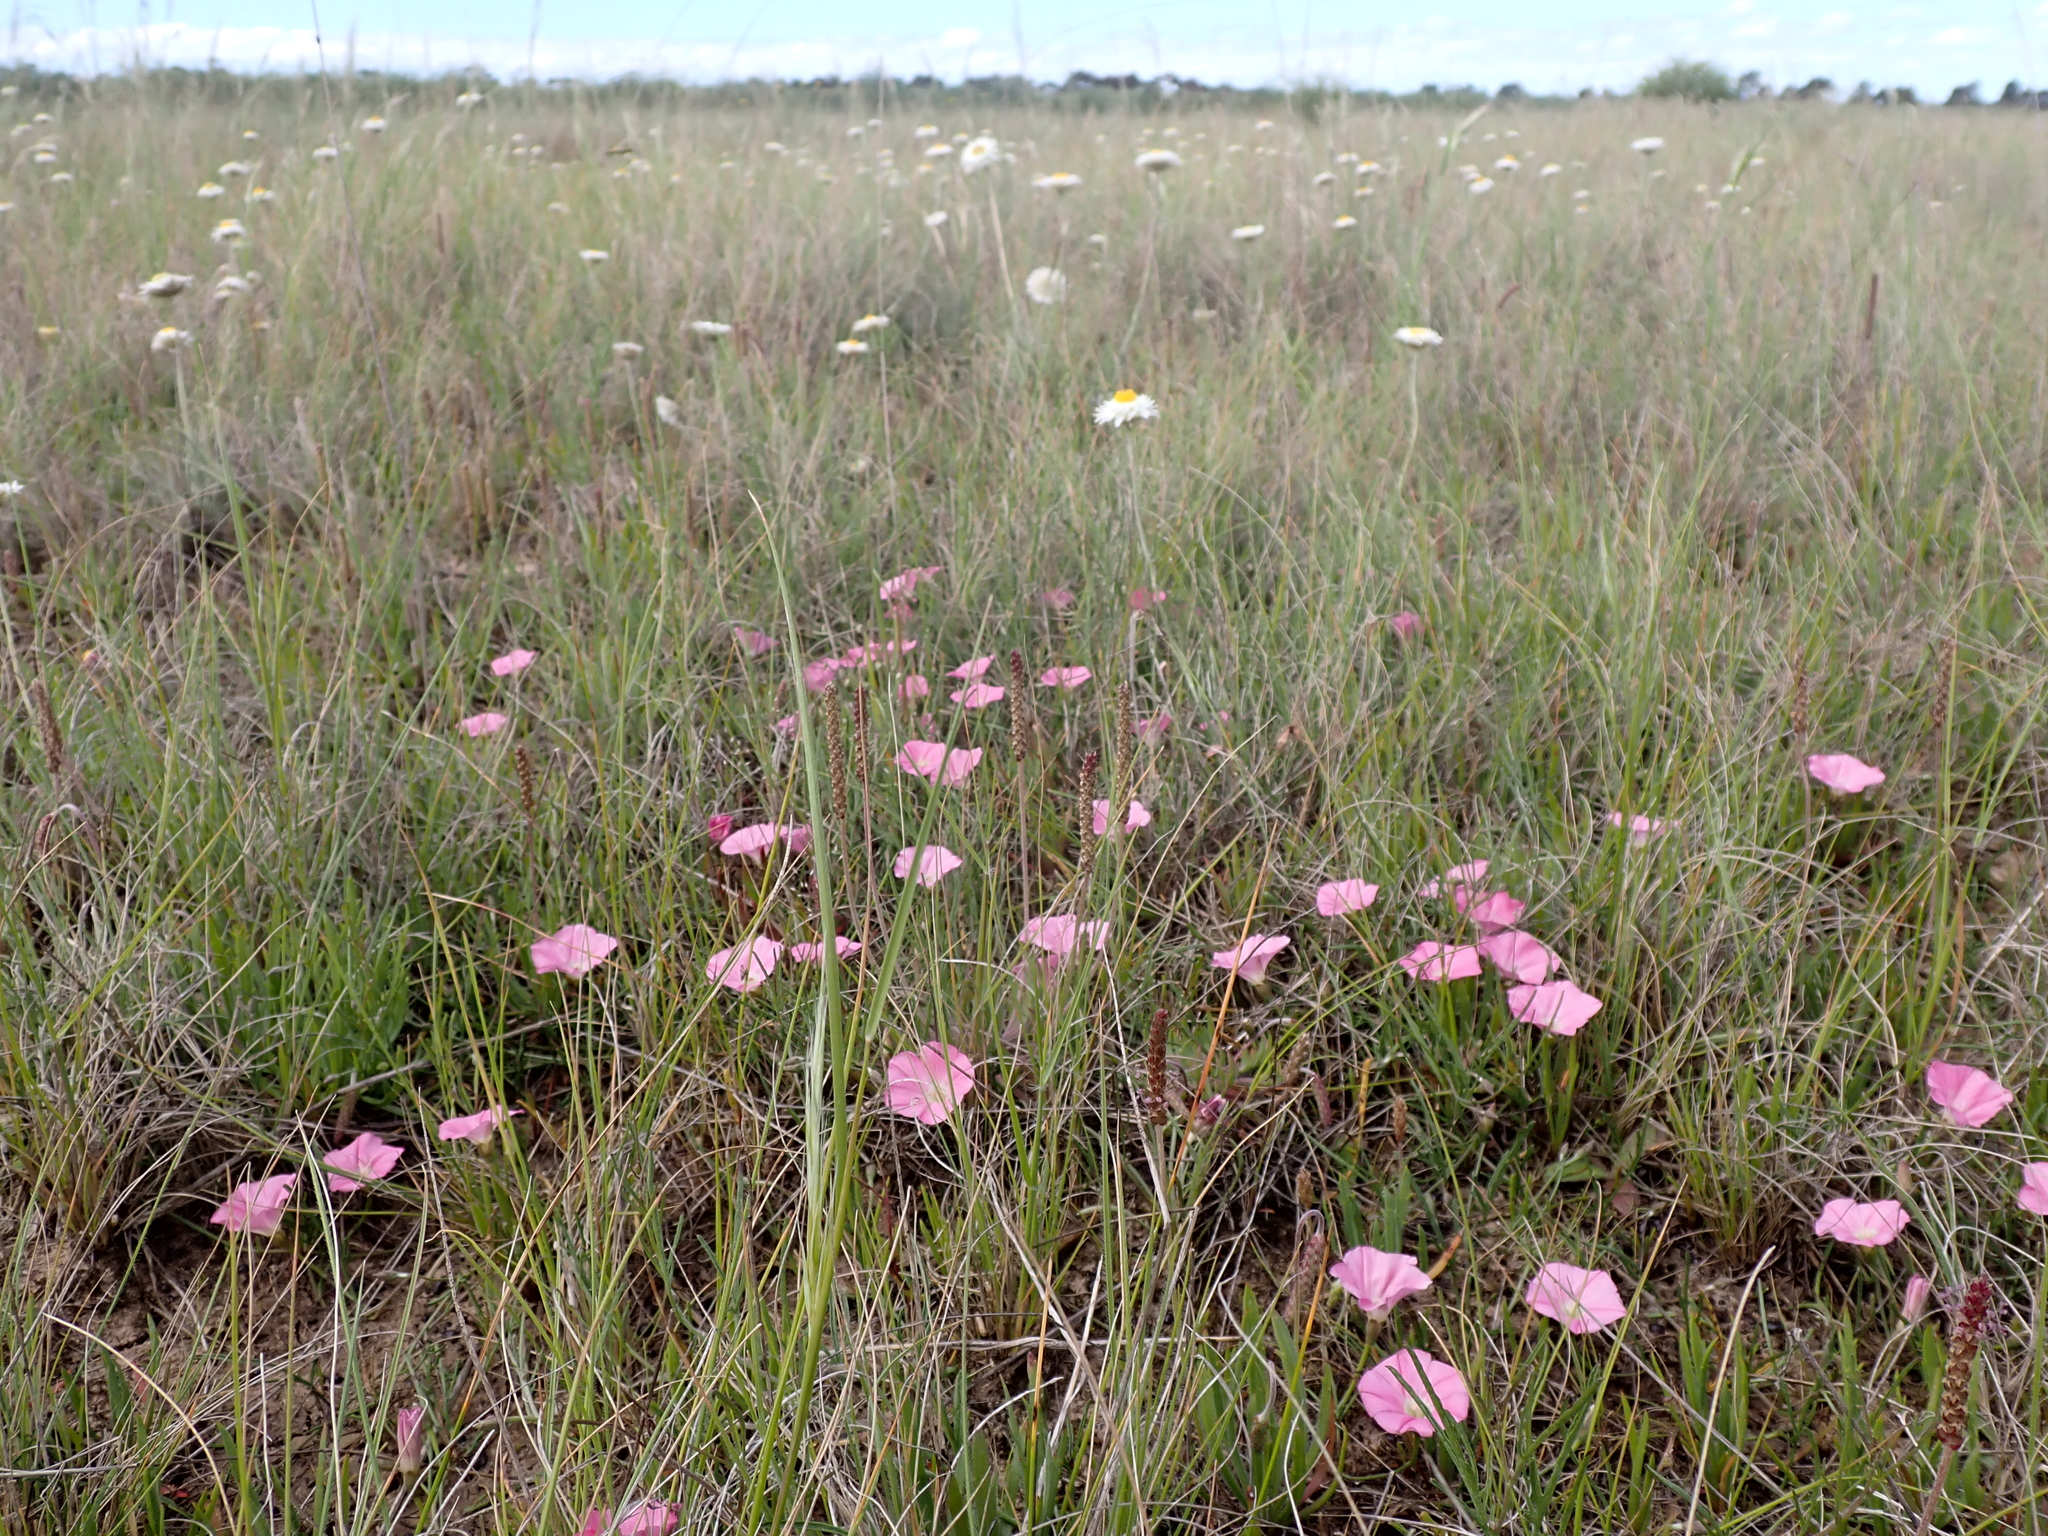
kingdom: Plantae
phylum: Tracheophyta
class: Magnoliopsida
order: Solanales
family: Convolvulaceae
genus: Convolvulus
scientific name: Convolvulus angustissimus
